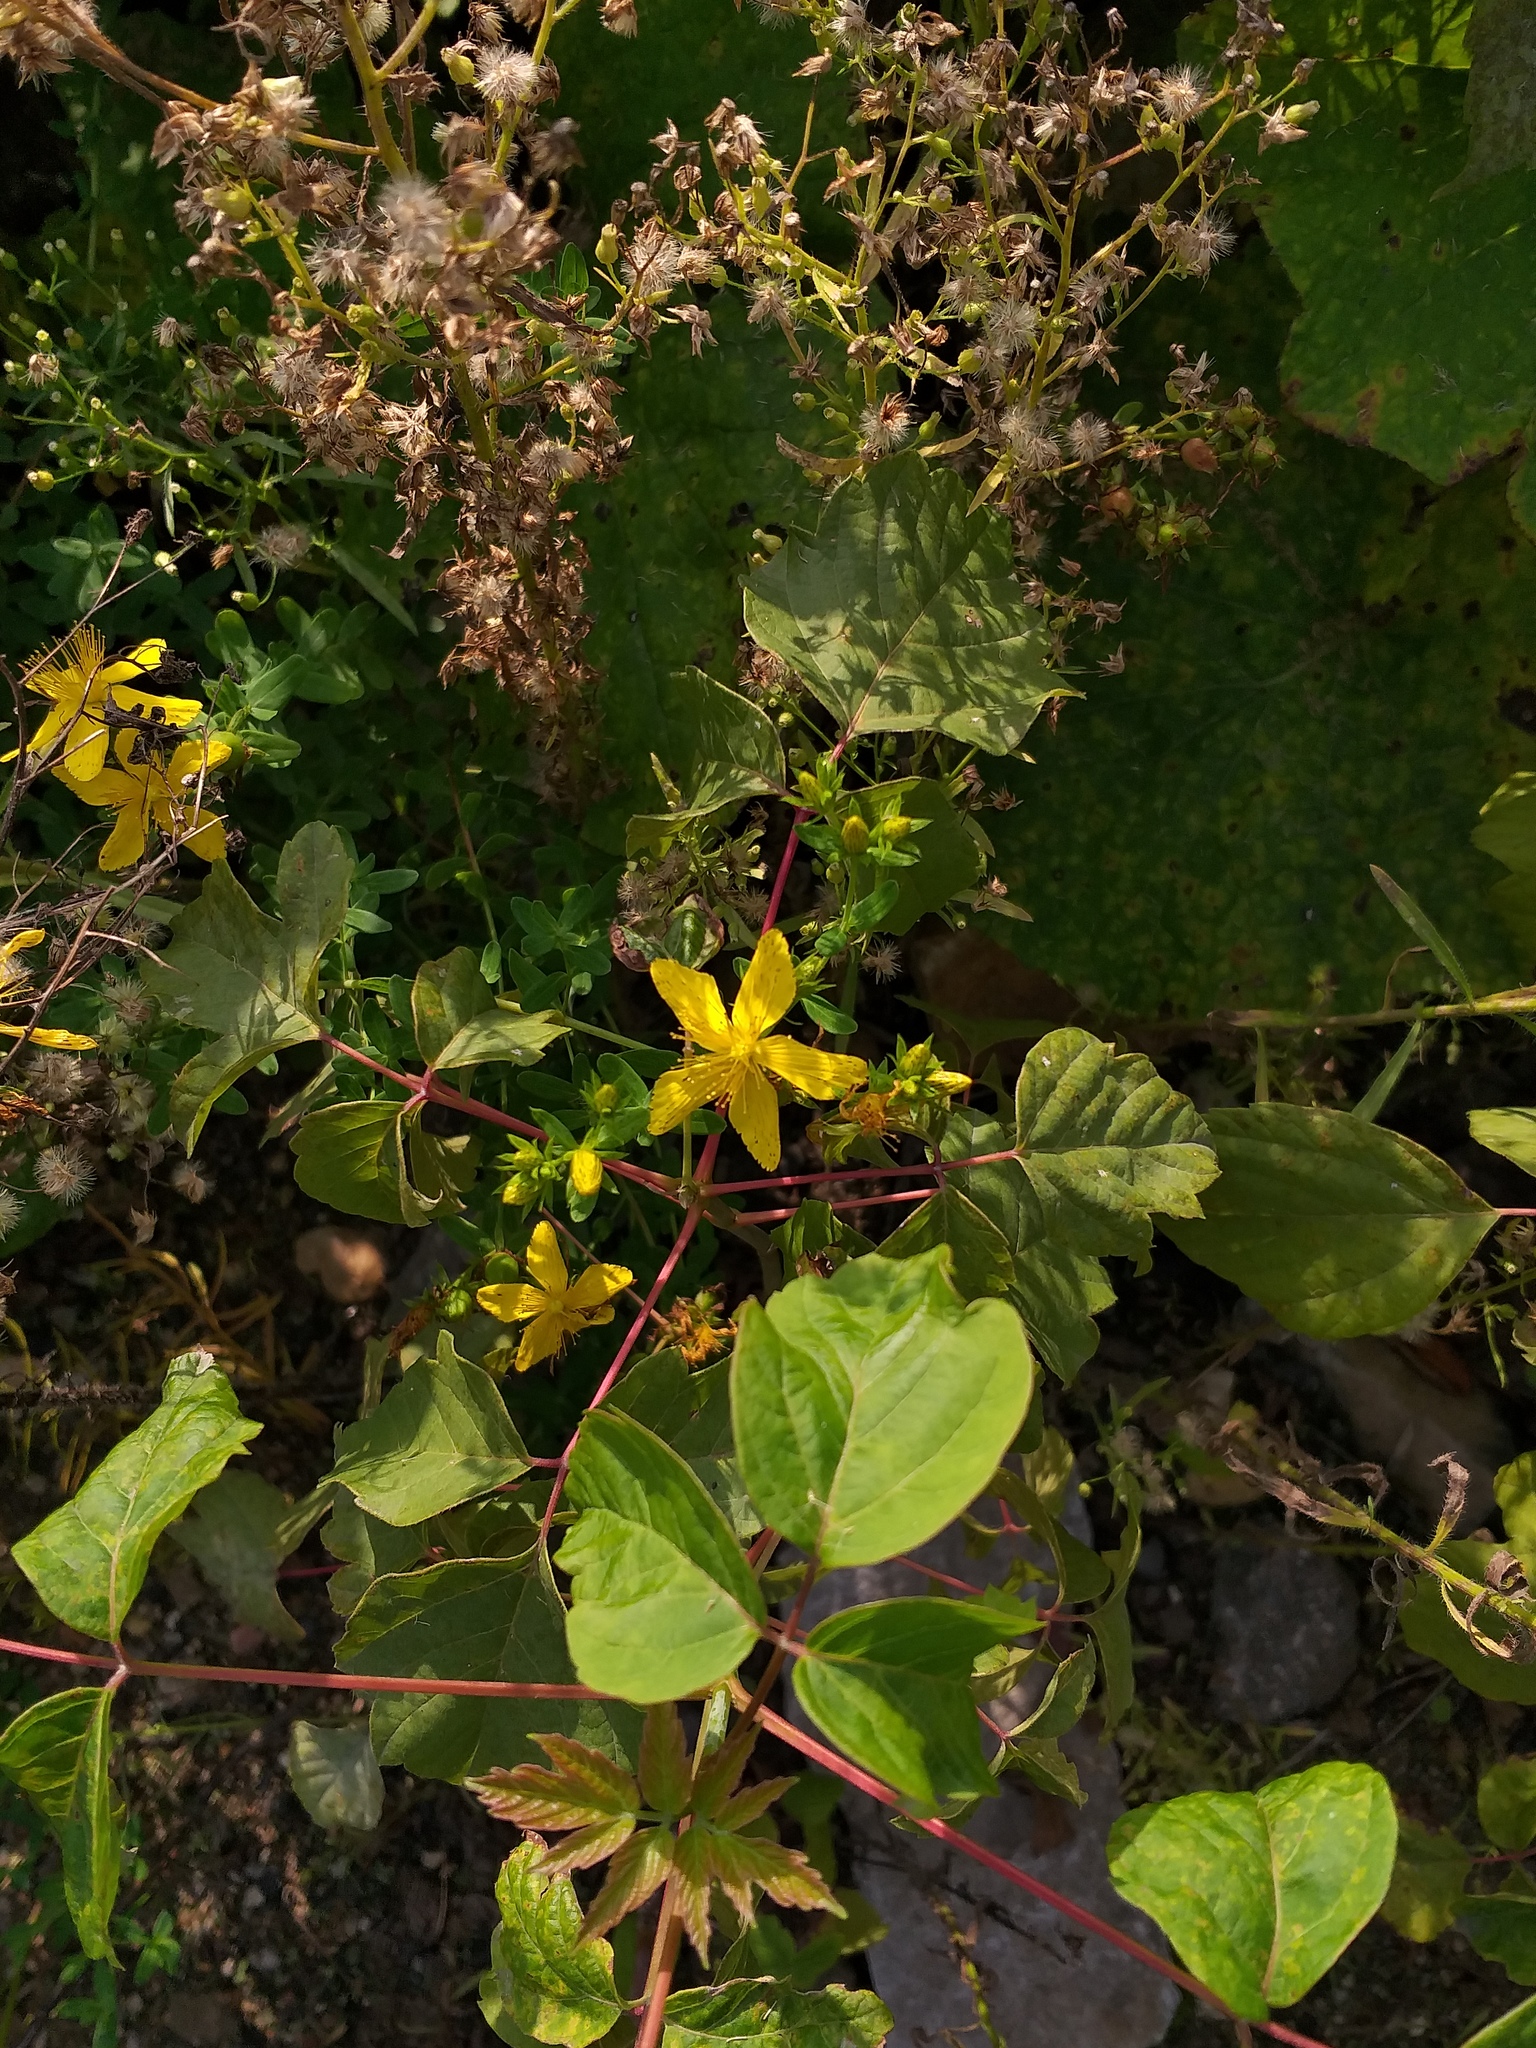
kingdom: Plantae
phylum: Tracheophyta
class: Magnoliopsida
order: Malpighiales
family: Hypericaceae
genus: Hypericum
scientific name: Hypericum perforatum
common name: Common st. johnswort
